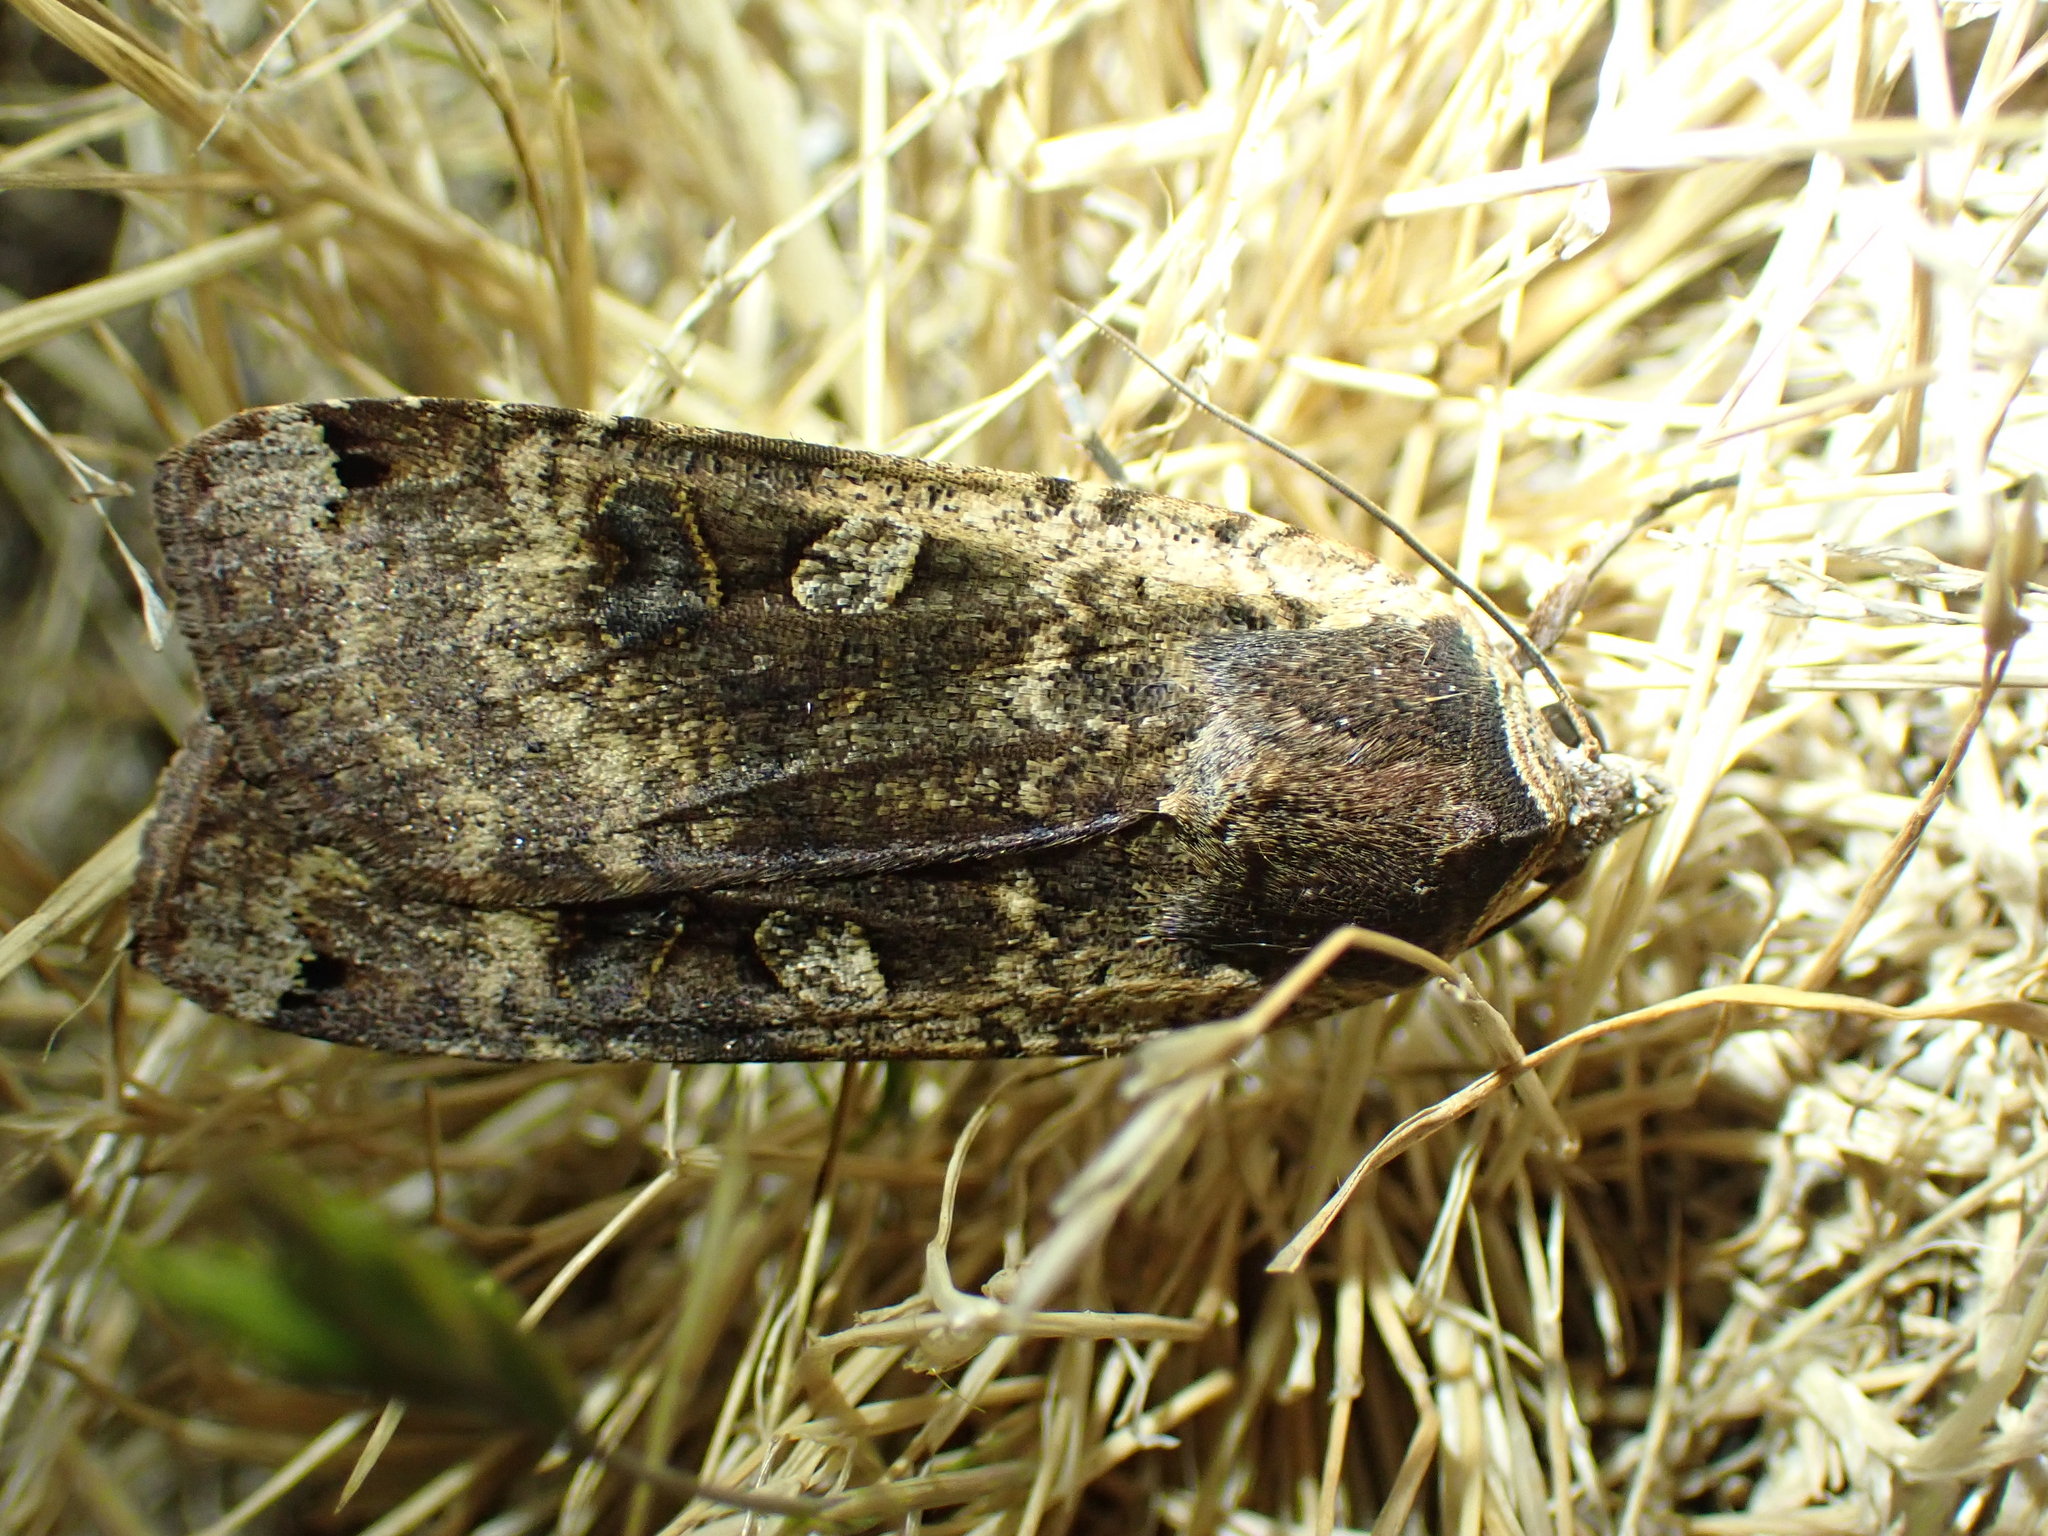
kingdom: Animalia
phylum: Arthropoda
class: Insecta
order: Lepidoptera
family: Noctuidae
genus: Noctua
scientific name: Noctua pronuba
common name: Large yellow underwing
